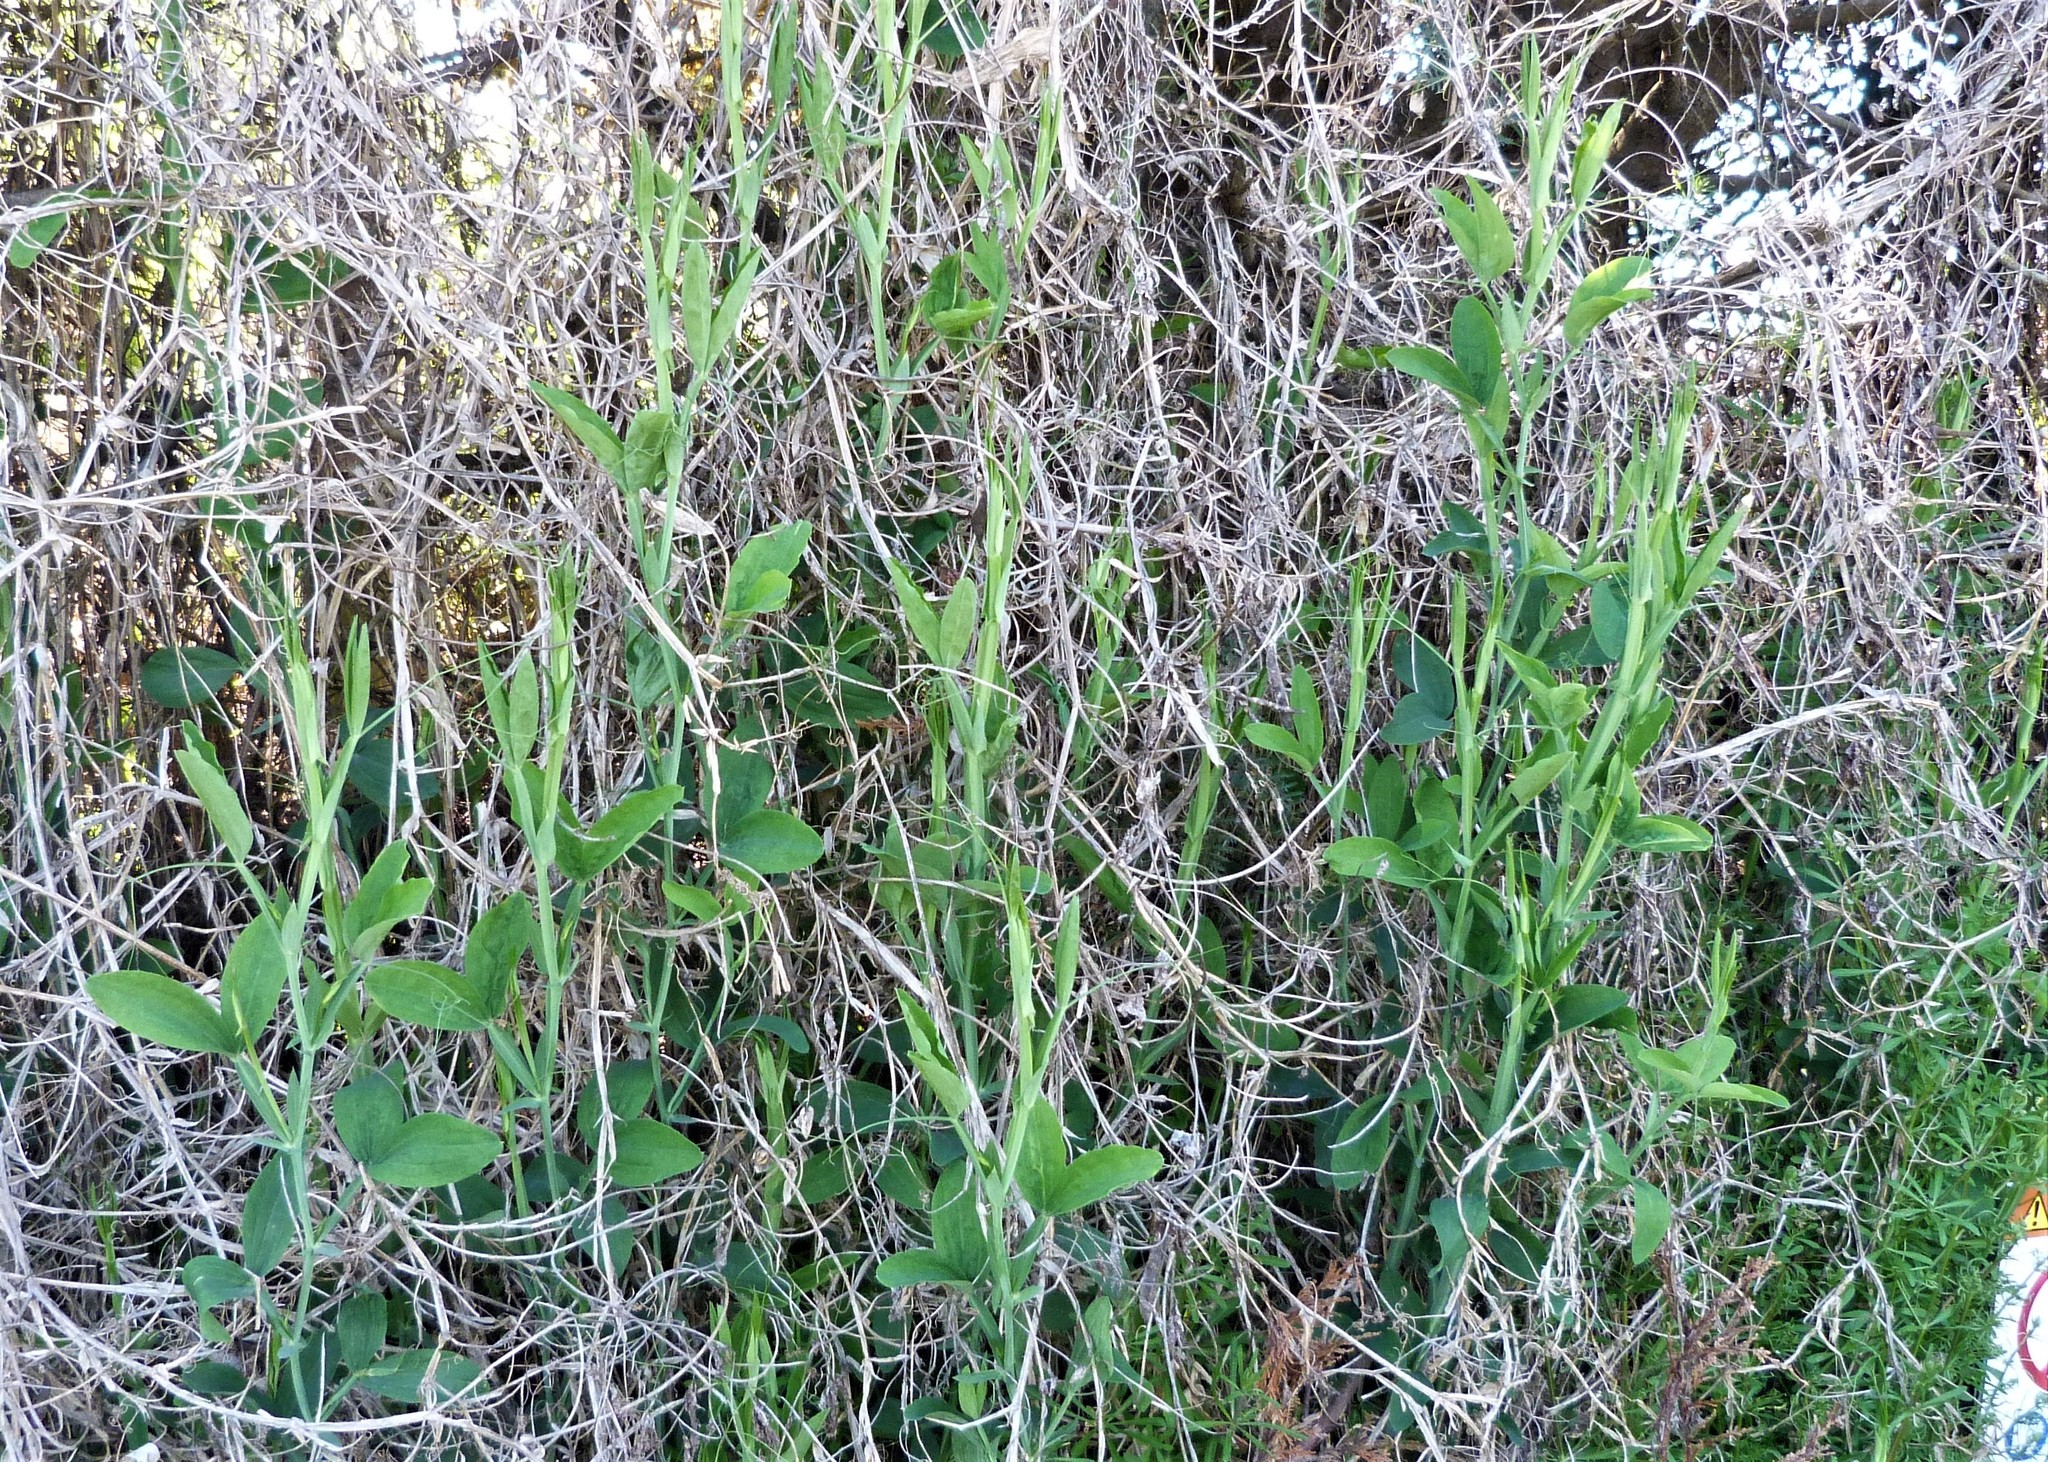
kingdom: Plantae
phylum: Tracheophyta
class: Magnoliopsida
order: Fabales
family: Fabaceae
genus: Lathyrus
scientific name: Lathyrus latifolius
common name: Perennial pea
